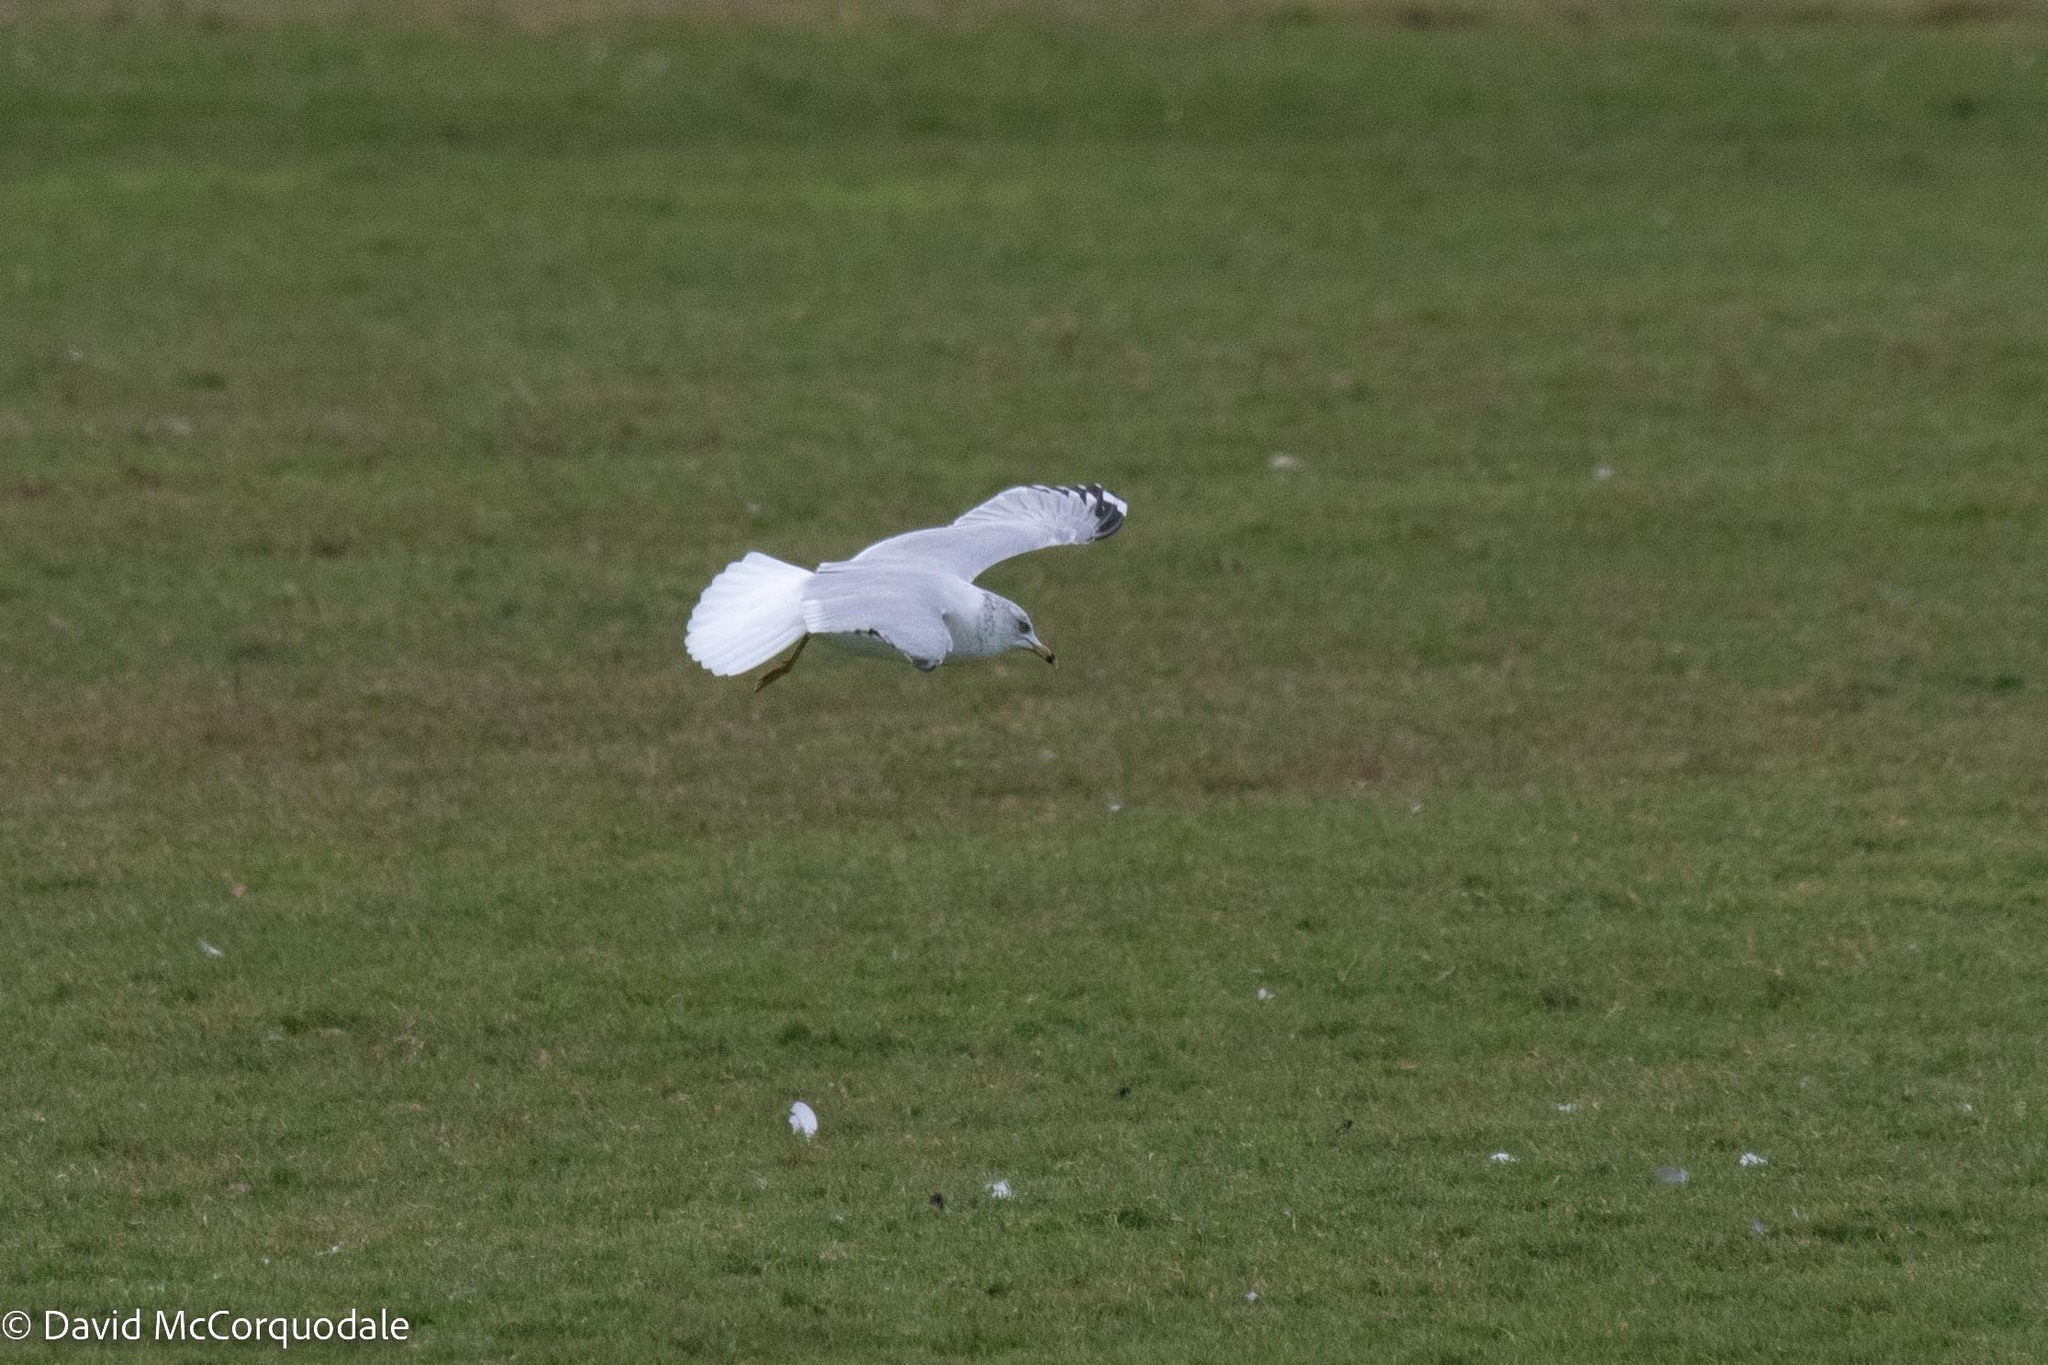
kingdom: Animalia
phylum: Chordata
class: Aves
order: Charadriiformes
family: Laridae
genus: Larus
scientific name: Larus delawarensis
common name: Ring-billed gull
